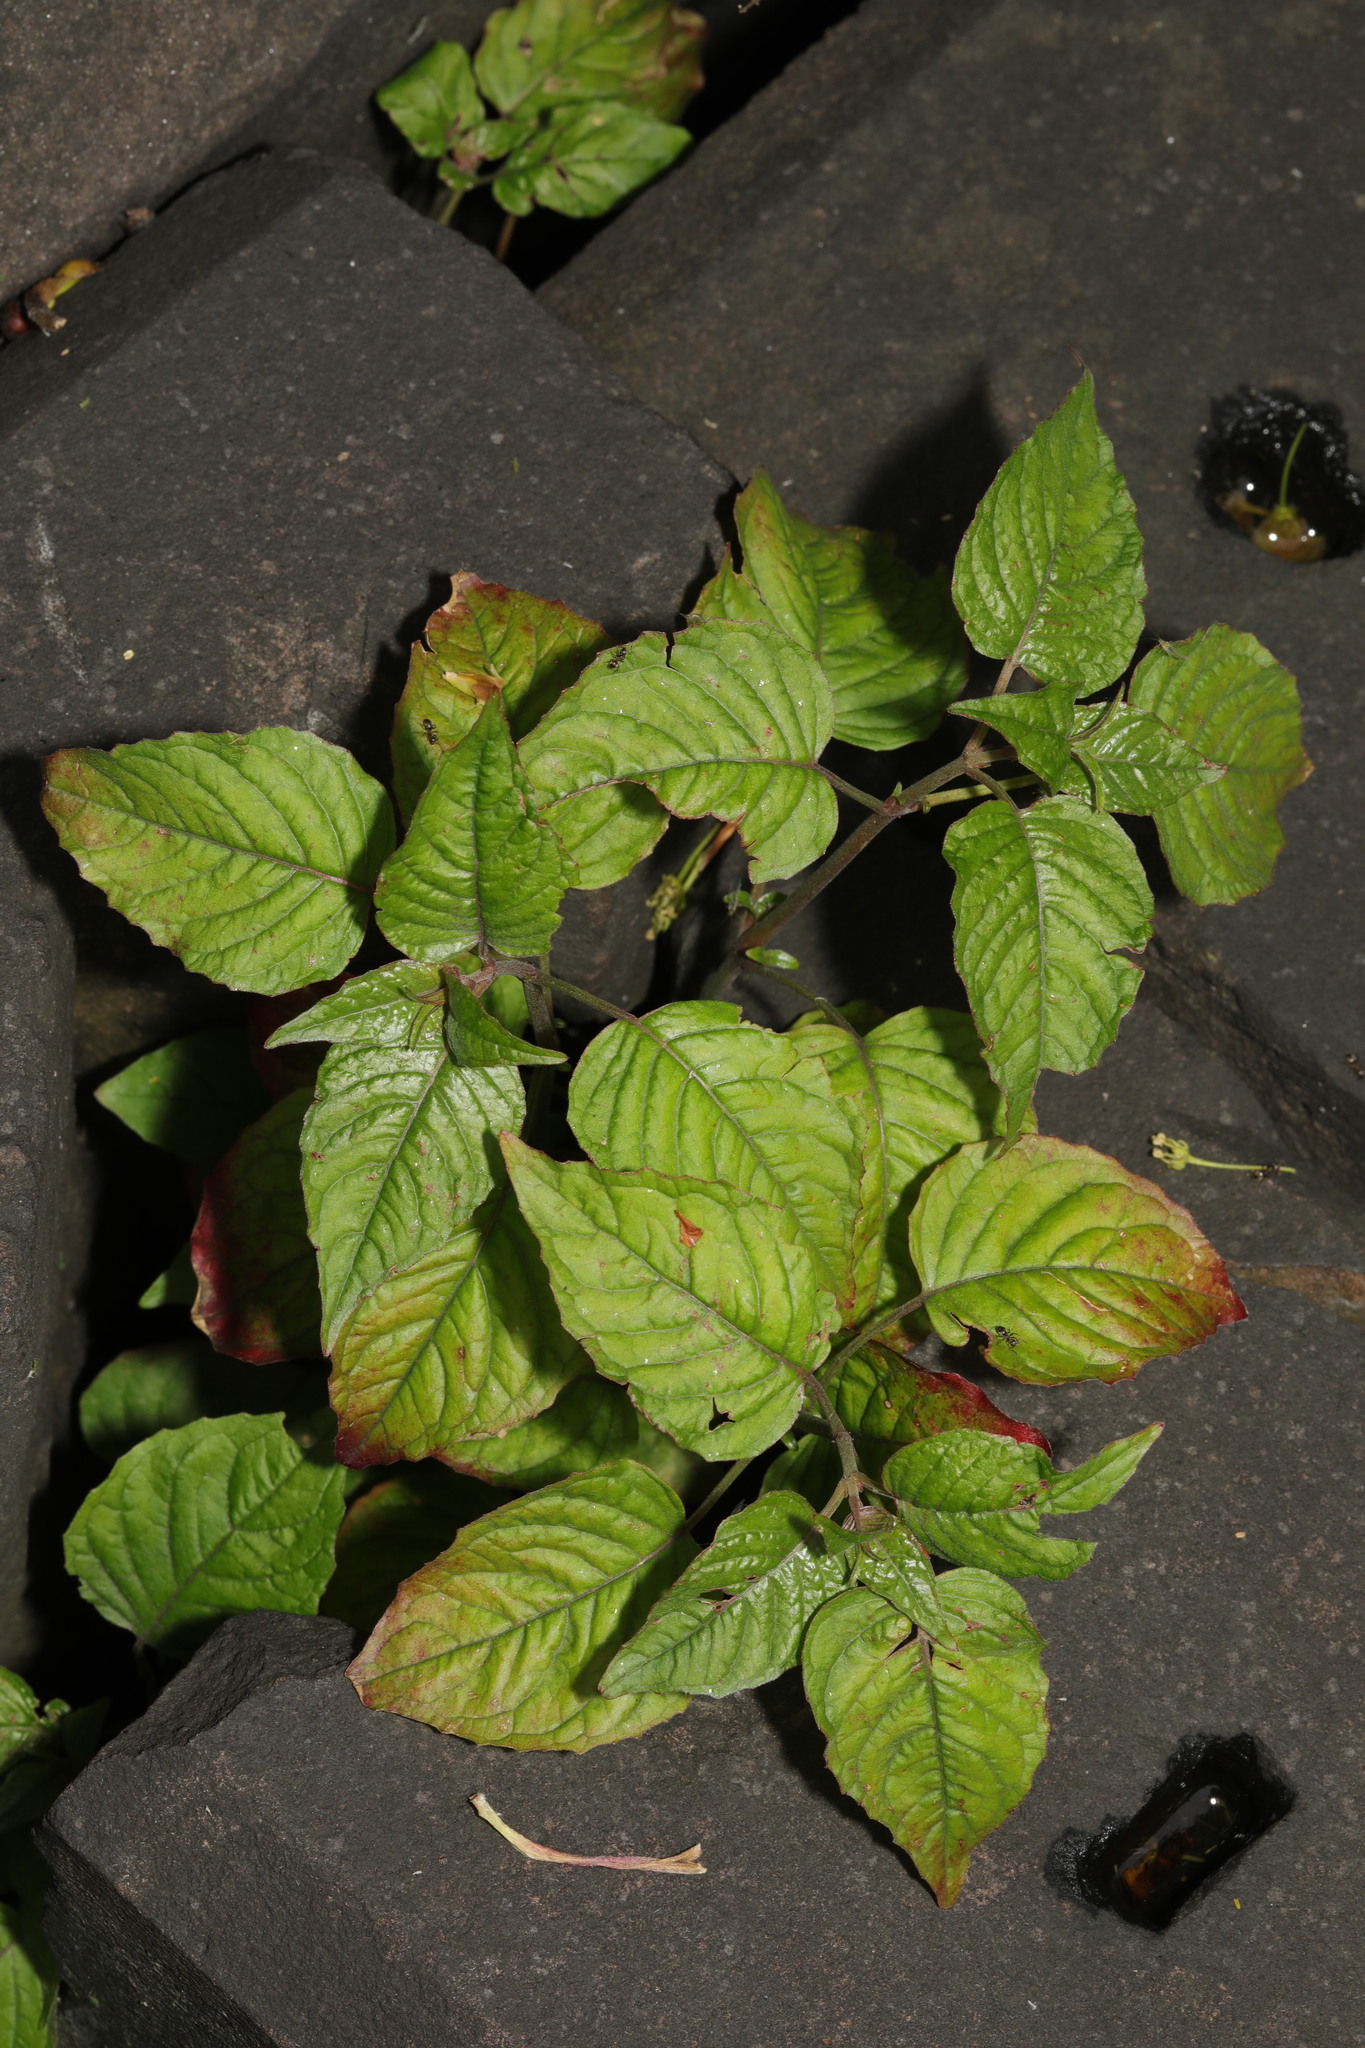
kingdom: Plantae
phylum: Tracheophyta
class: Magnoliopsida
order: Myrtales
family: Onagraceae
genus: Circaea
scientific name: Circaea lutetiana
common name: Enchanter's-nightshade
